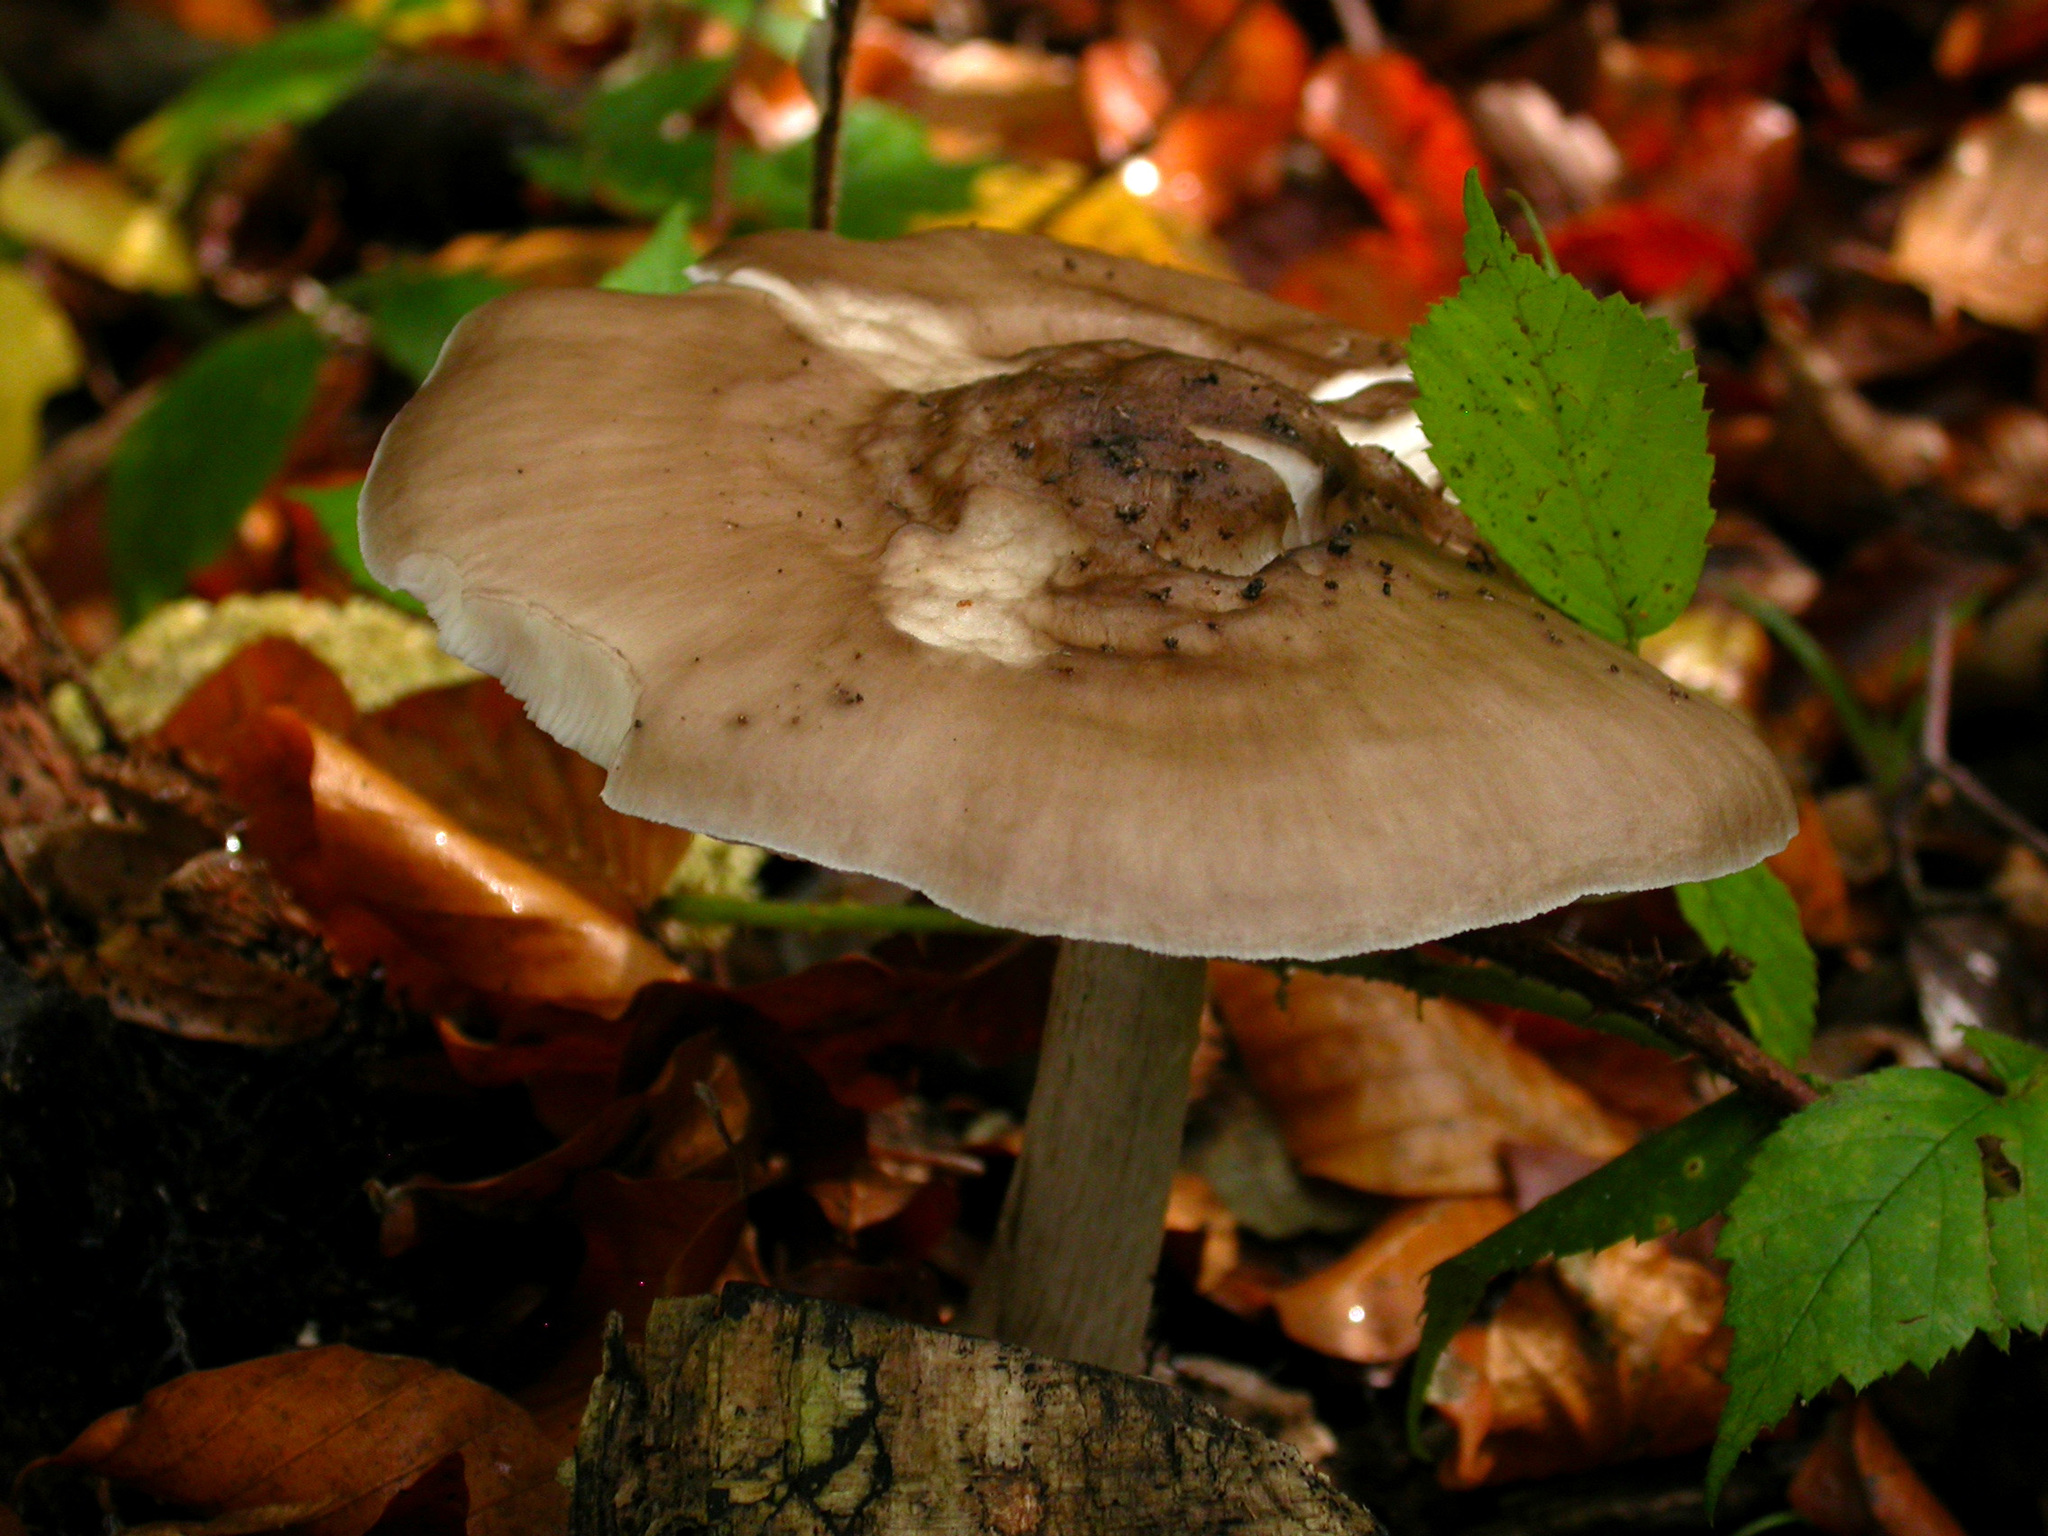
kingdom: Fungi
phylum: Basidiomycota
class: Agaricomycetes
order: Agaricales
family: Pluteaceae
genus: Pluteus
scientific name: Pluteus cervinus
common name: Deer shield
